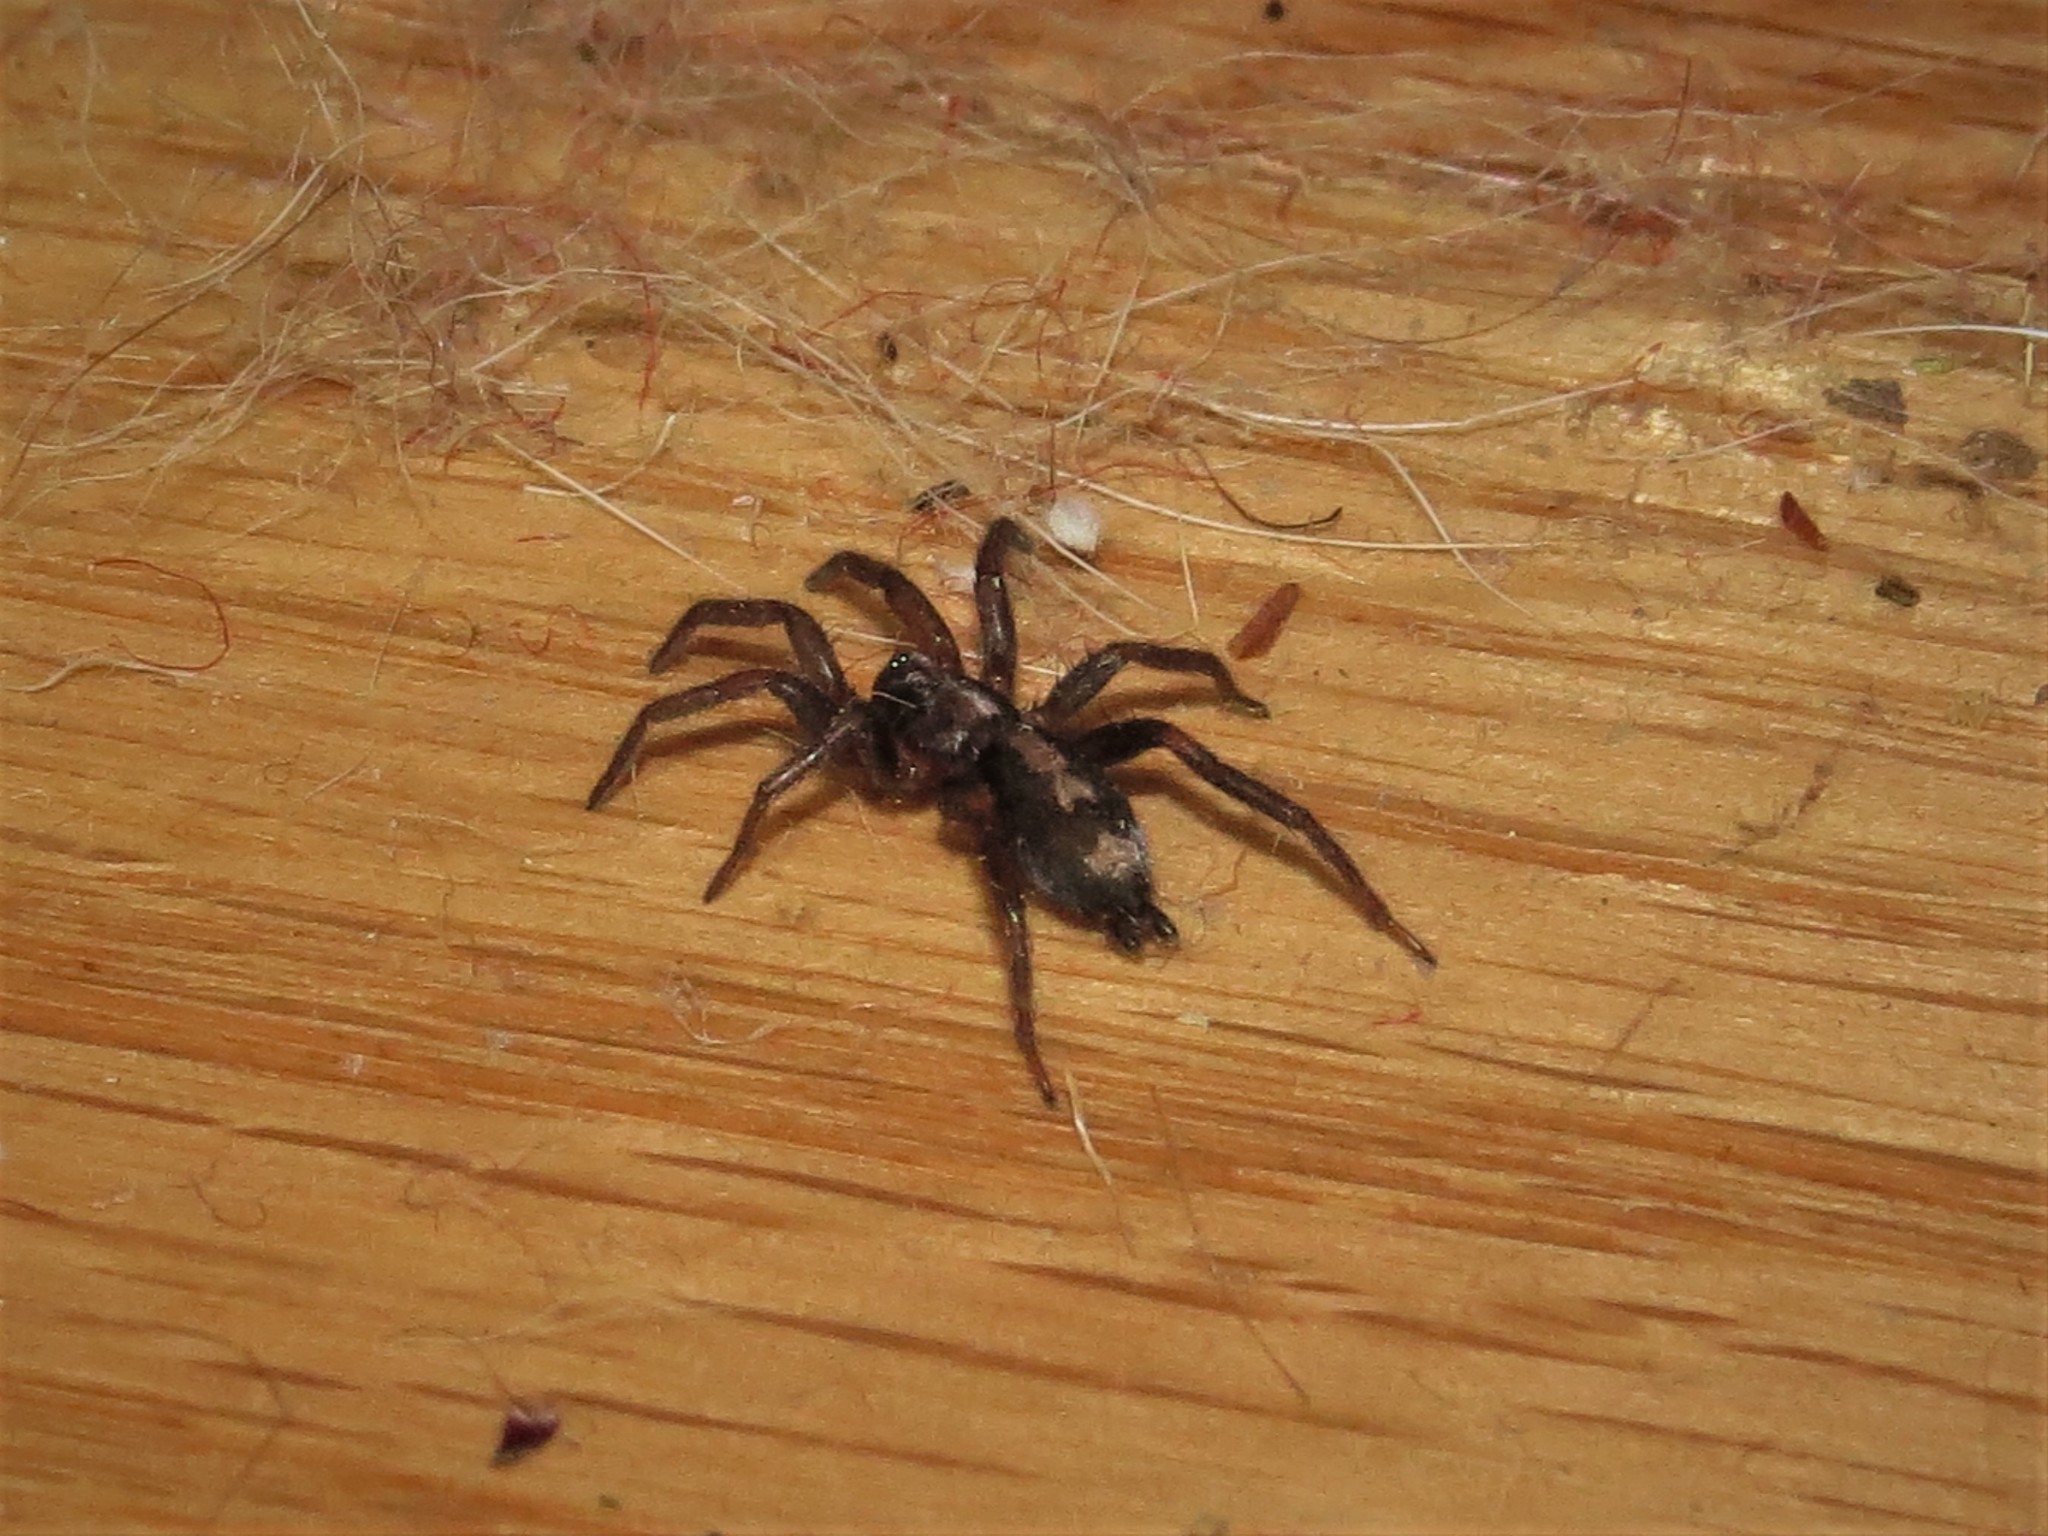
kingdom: Animalia
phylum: Arthropoda
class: Arachnida
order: Araneae
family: Gnaphosidae
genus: Herpyllus
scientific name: Herpyllus ecclesiasticus
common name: Eastern parson spider
